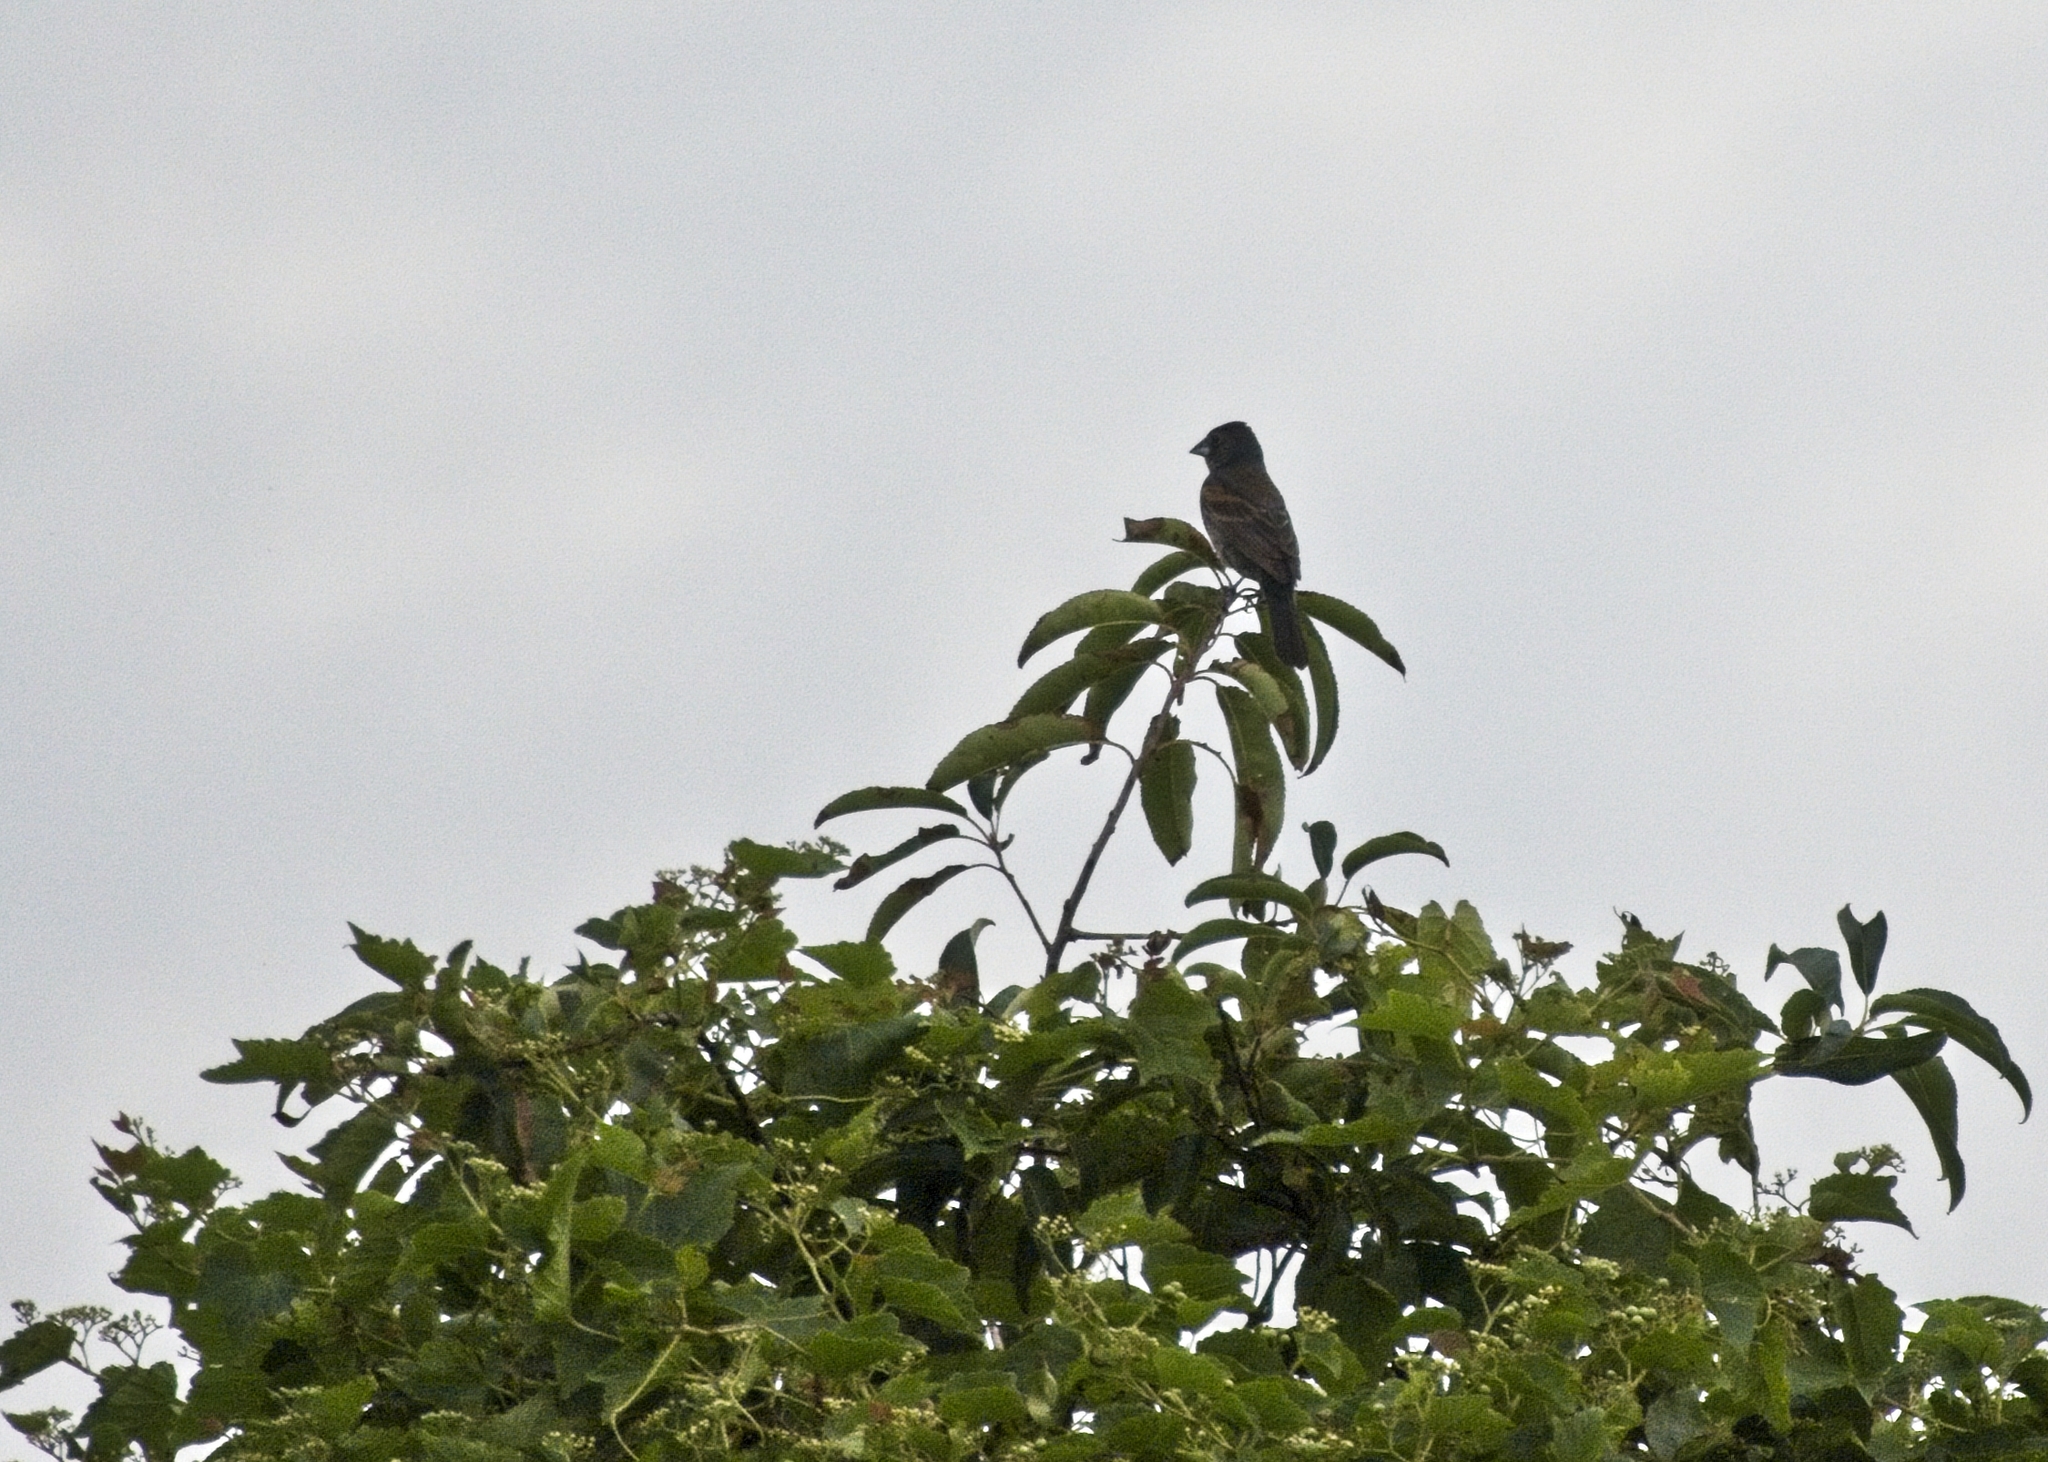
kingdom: Animalia
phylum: Chordata
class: Aves
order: Passeriformes
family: Cardinalidae
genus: Passerina
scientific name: Passerina caerulea
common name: Blue grosbeak
